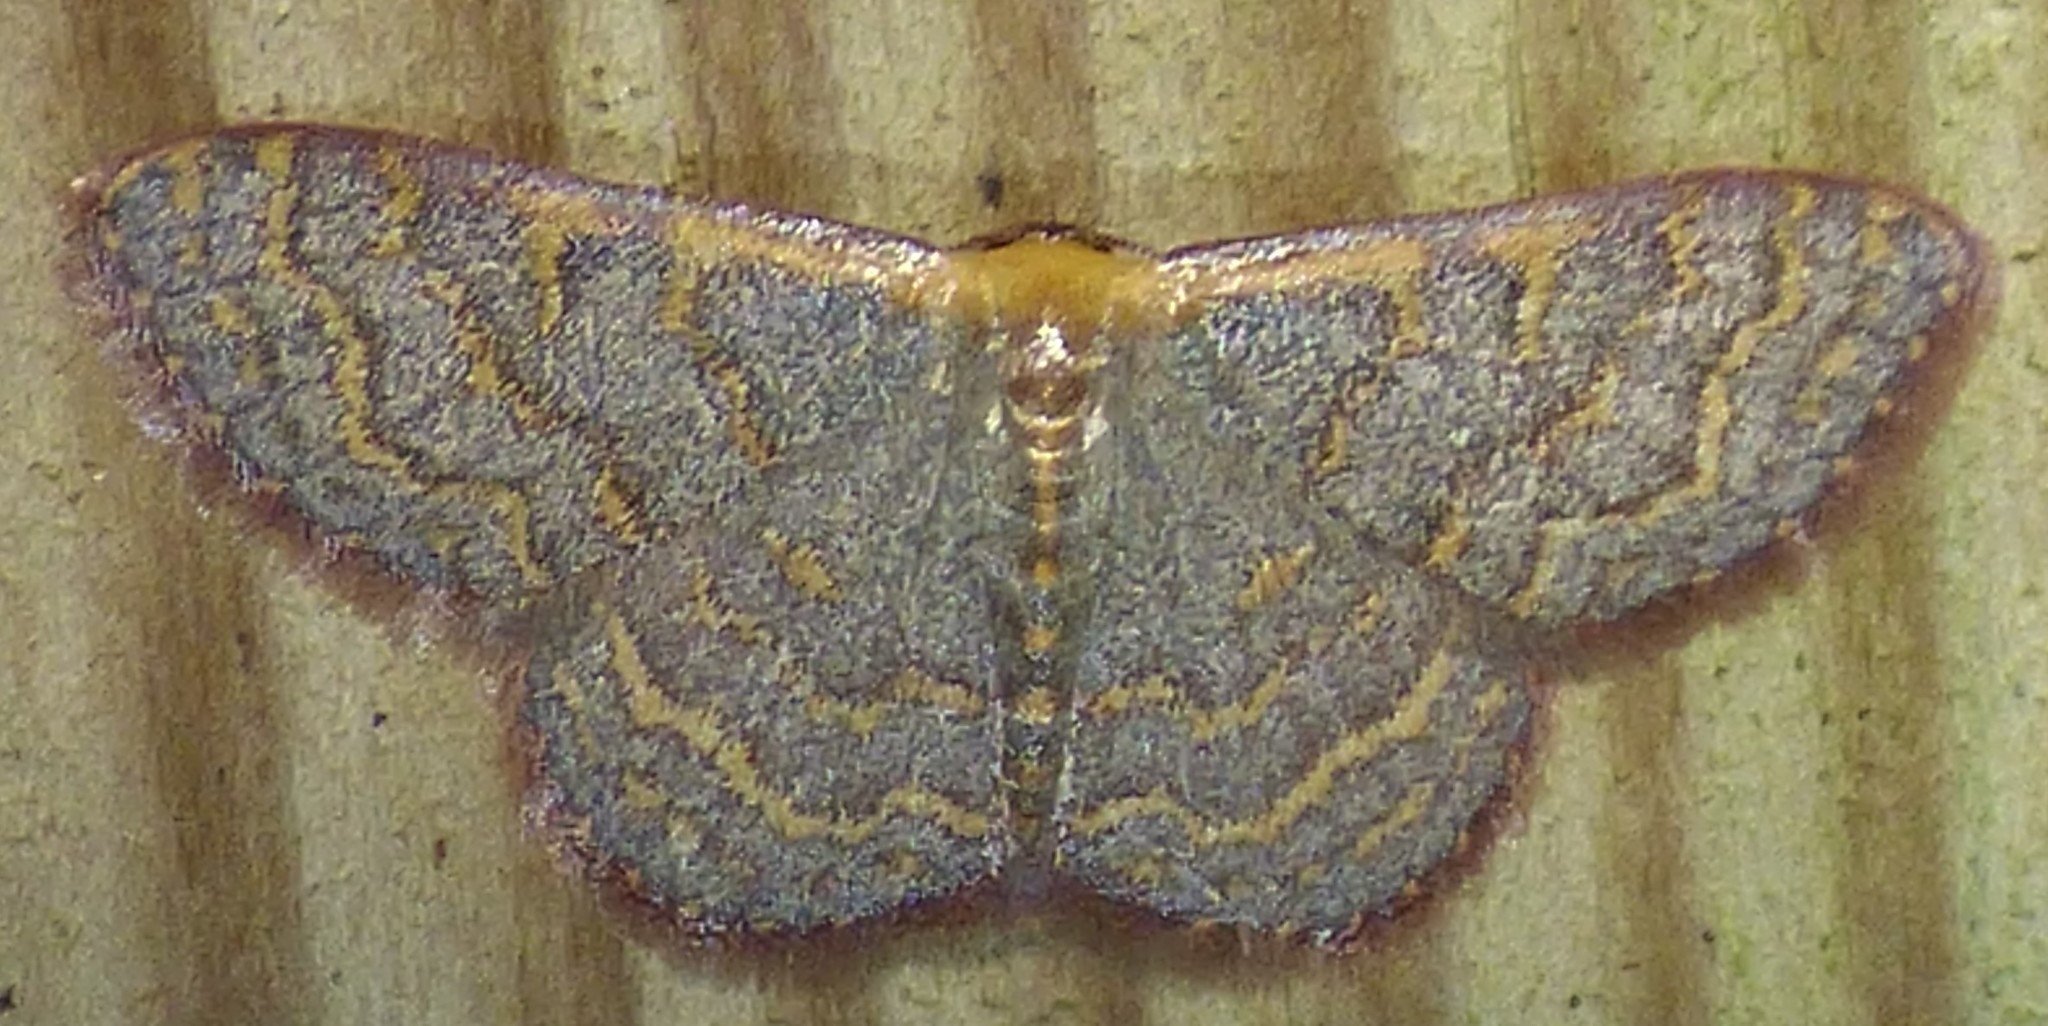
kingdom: Animalia
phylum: Arthropoda
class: Insecta
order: Lepidoptera
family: Geometridae
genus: Leptostales
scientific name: Leptostales pannaria
